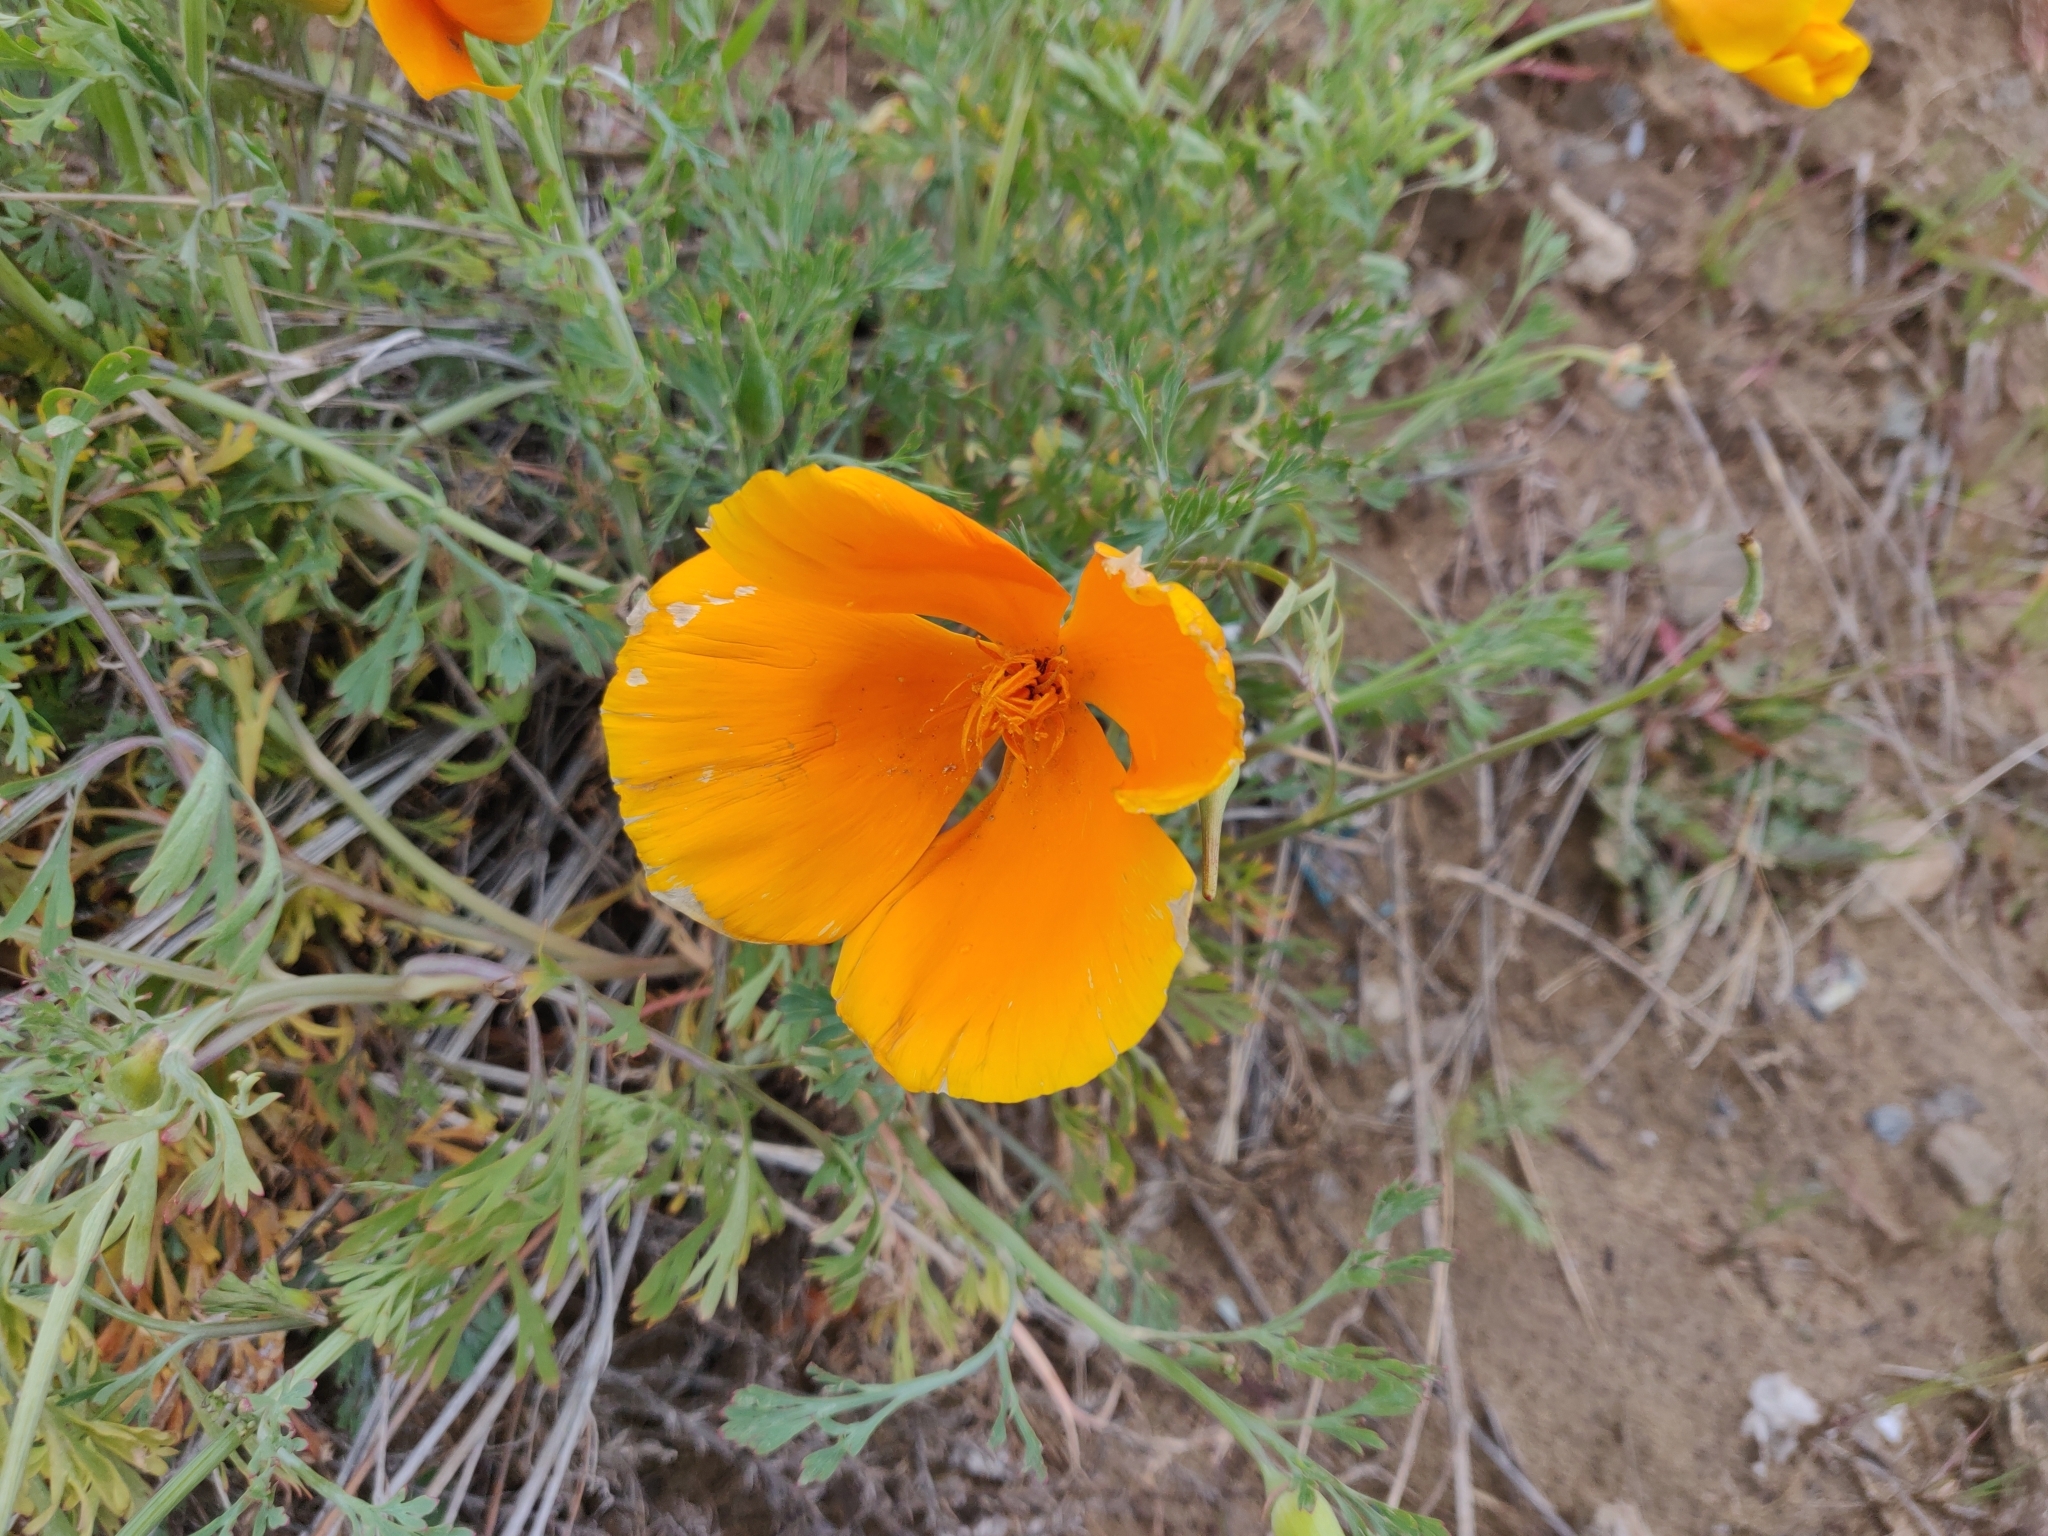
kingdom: Plantae
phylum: Tracheophyta
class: Magnoliopsida
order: Ranunculales
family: Papaveraceae
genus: Eschscholzia
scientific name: Eschscholzia californica
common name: California poppy
